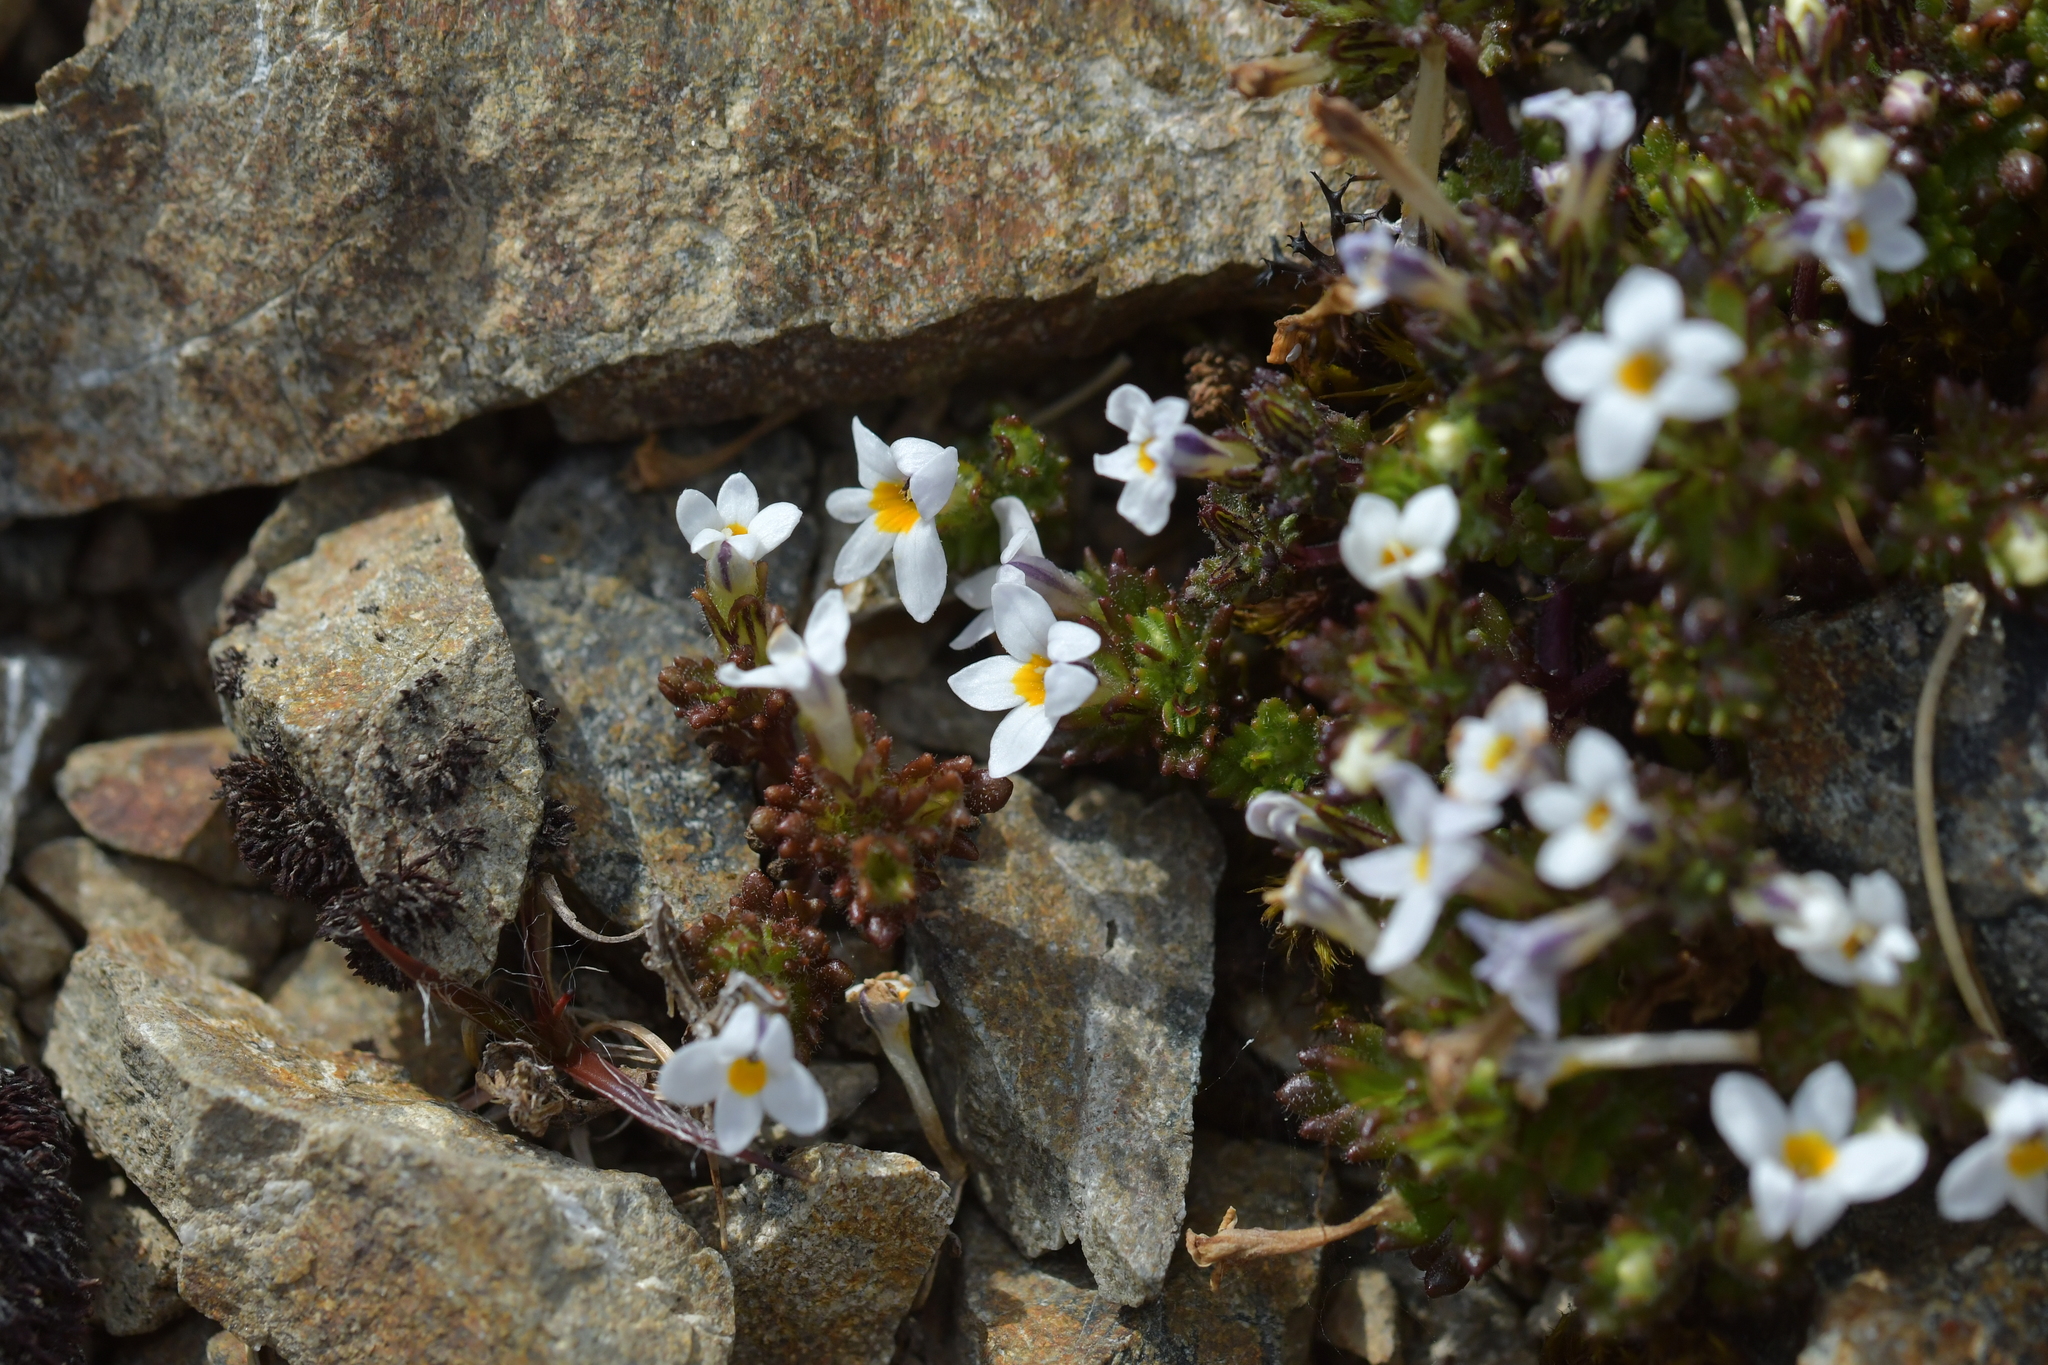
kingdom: Plantae
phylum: Tracheophyta
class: Magnoliopsida
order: Lamiales
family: Orobanchaceae
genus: Euphrasia
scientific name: Euphrasia zelandica
